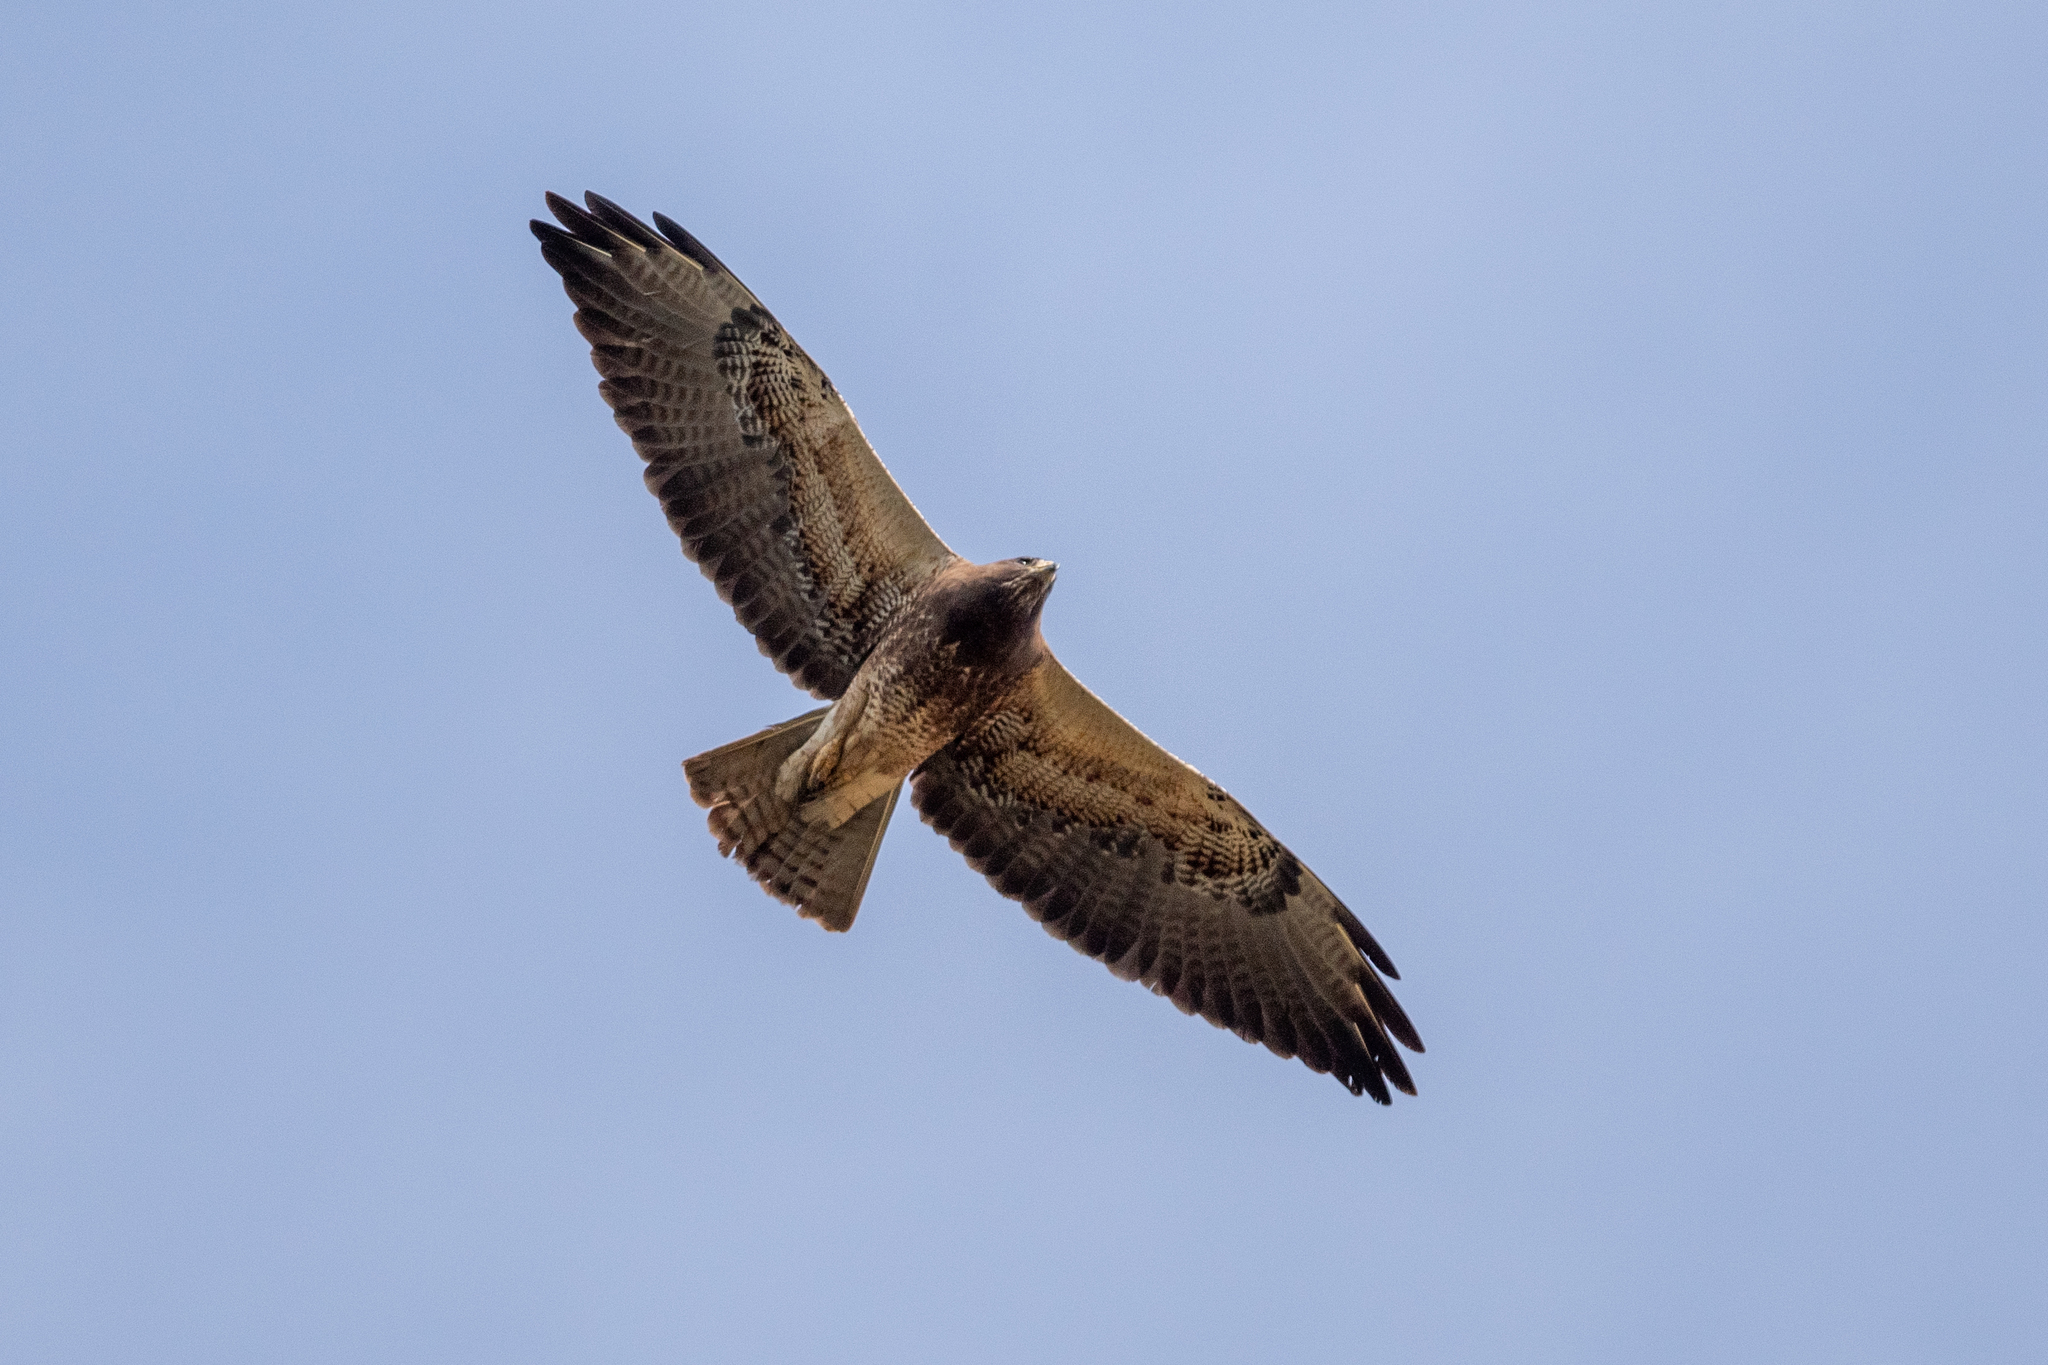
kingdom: Animalia
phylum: Chordata
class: Aves
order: Accipitriformes
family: Accipitridae
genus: Buteo
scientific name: Buteo swainsoni
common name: Swainson's hawk
